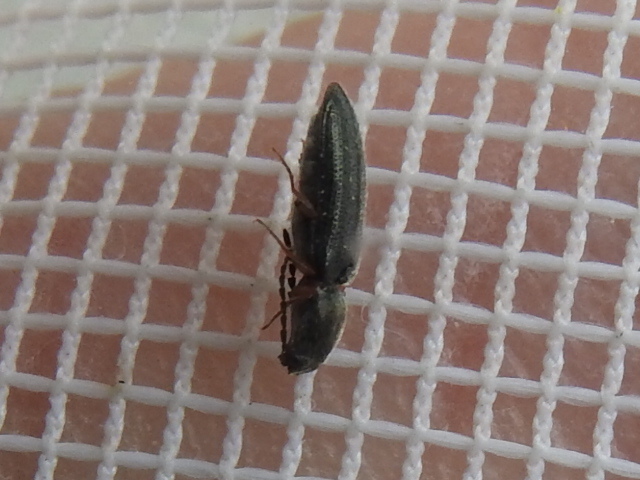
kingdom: Animalia
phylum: Arthropoda
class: Insecta
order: Coleoptera
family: Elateridae
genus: Limonius
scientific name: Limonius basilaris
